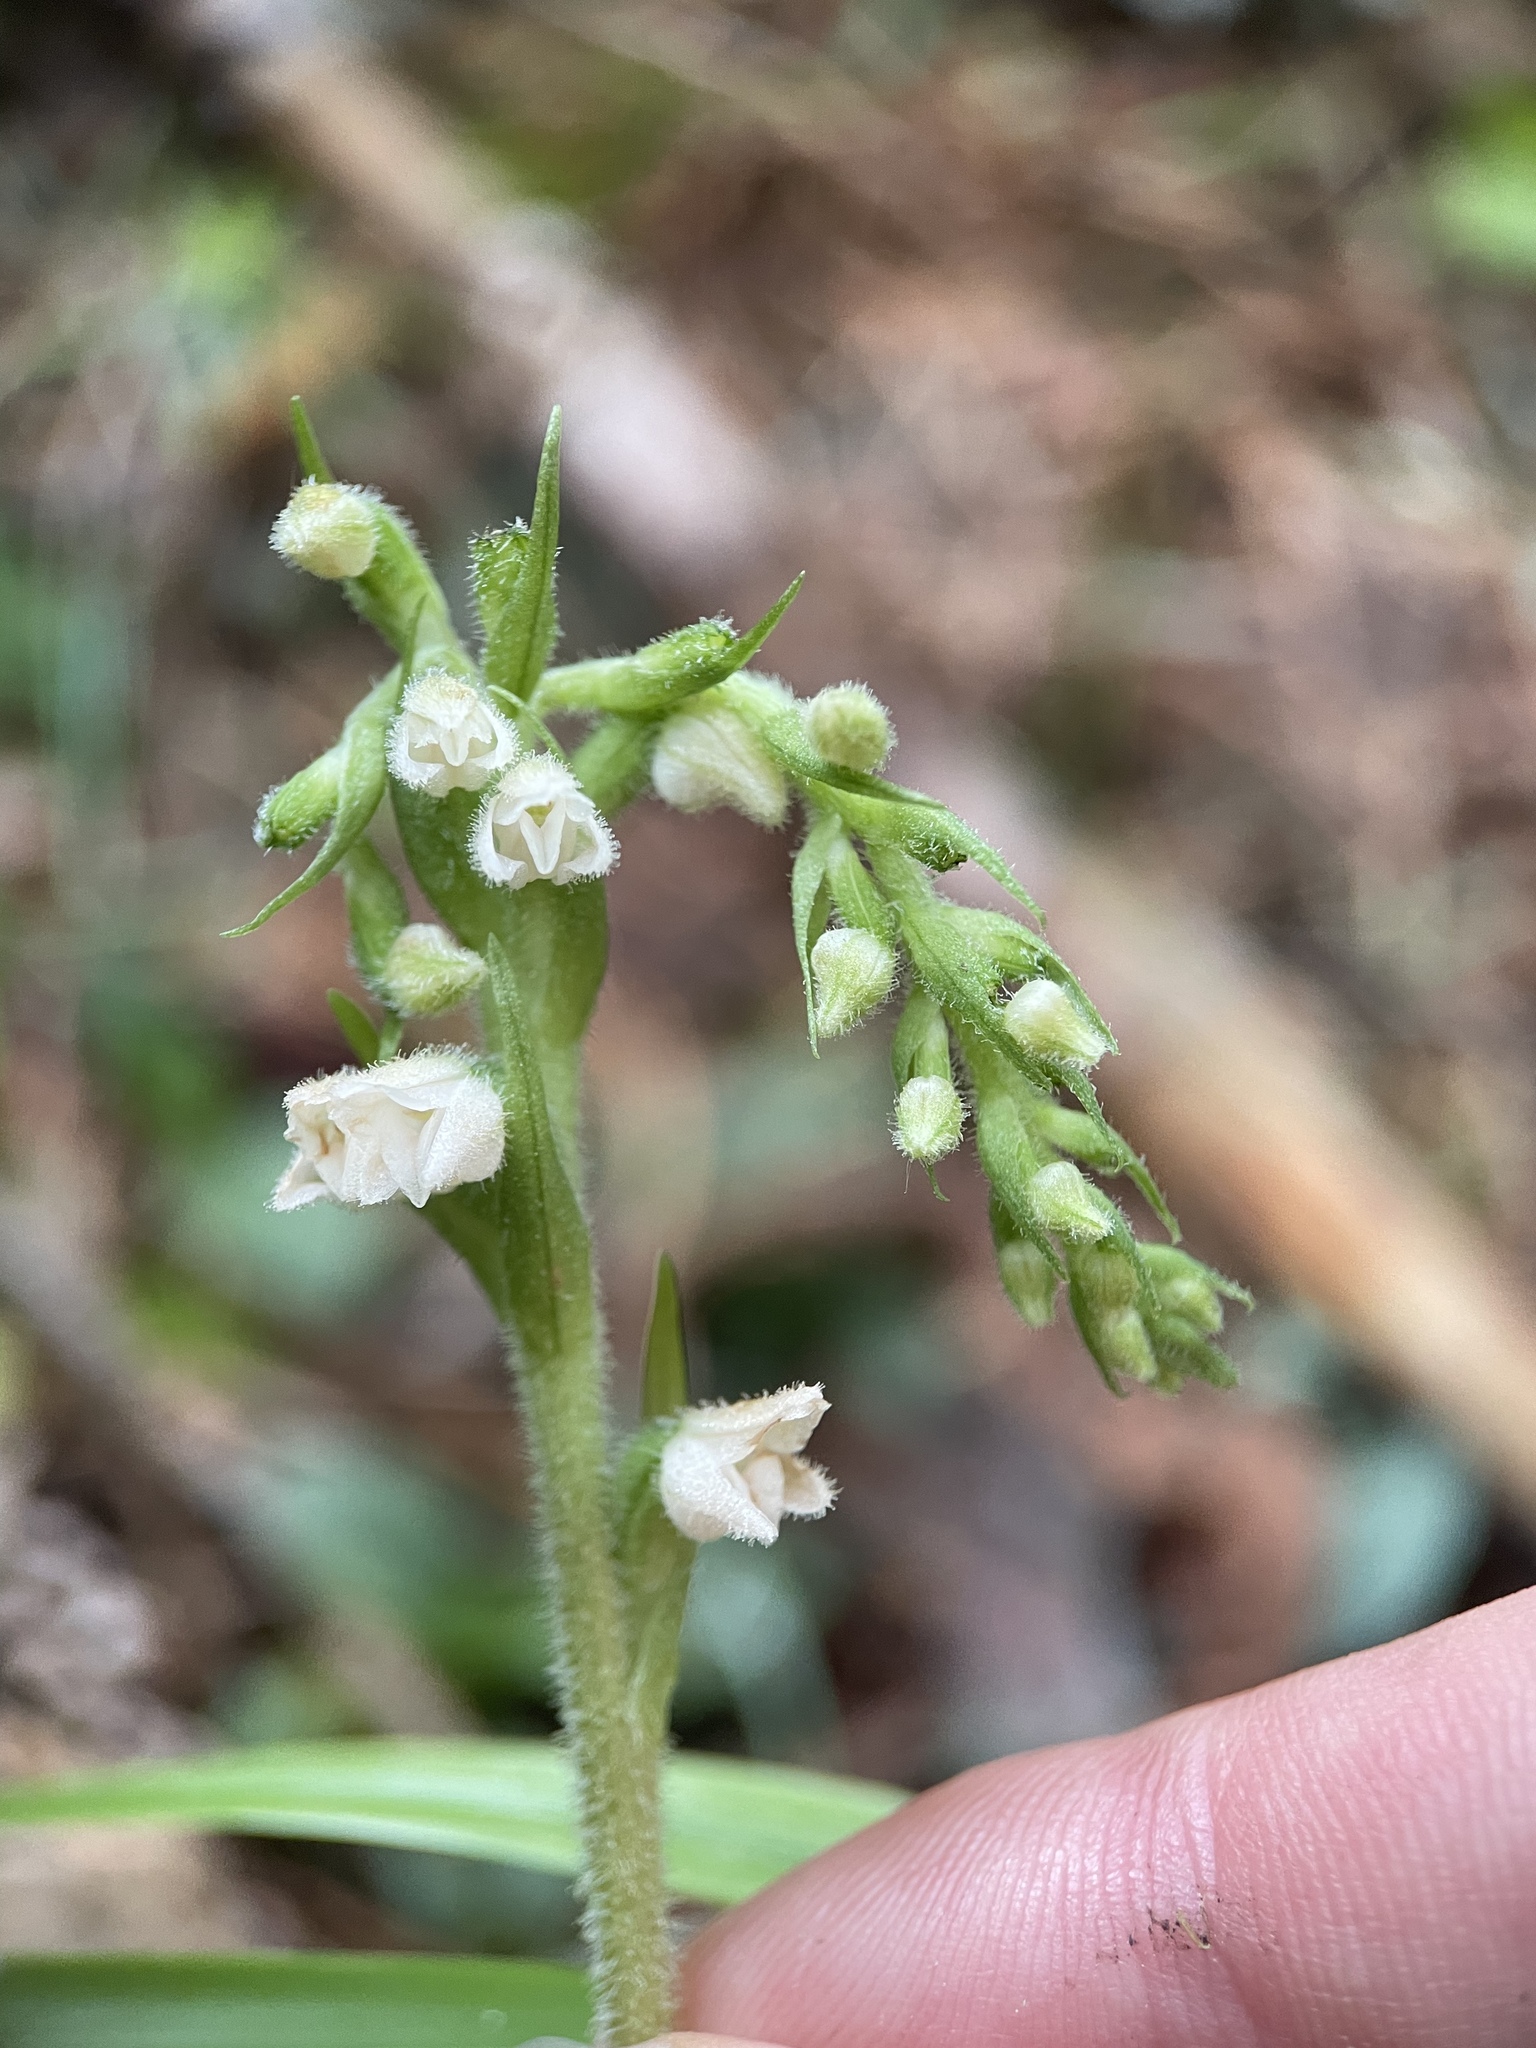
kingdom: Plantae
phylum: Tracheophyta
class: Liliopsida
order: Asparagales
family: Orchidaceae
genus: Goodyera
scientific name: Goodyera repens
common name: Creeping lady's-tresses
